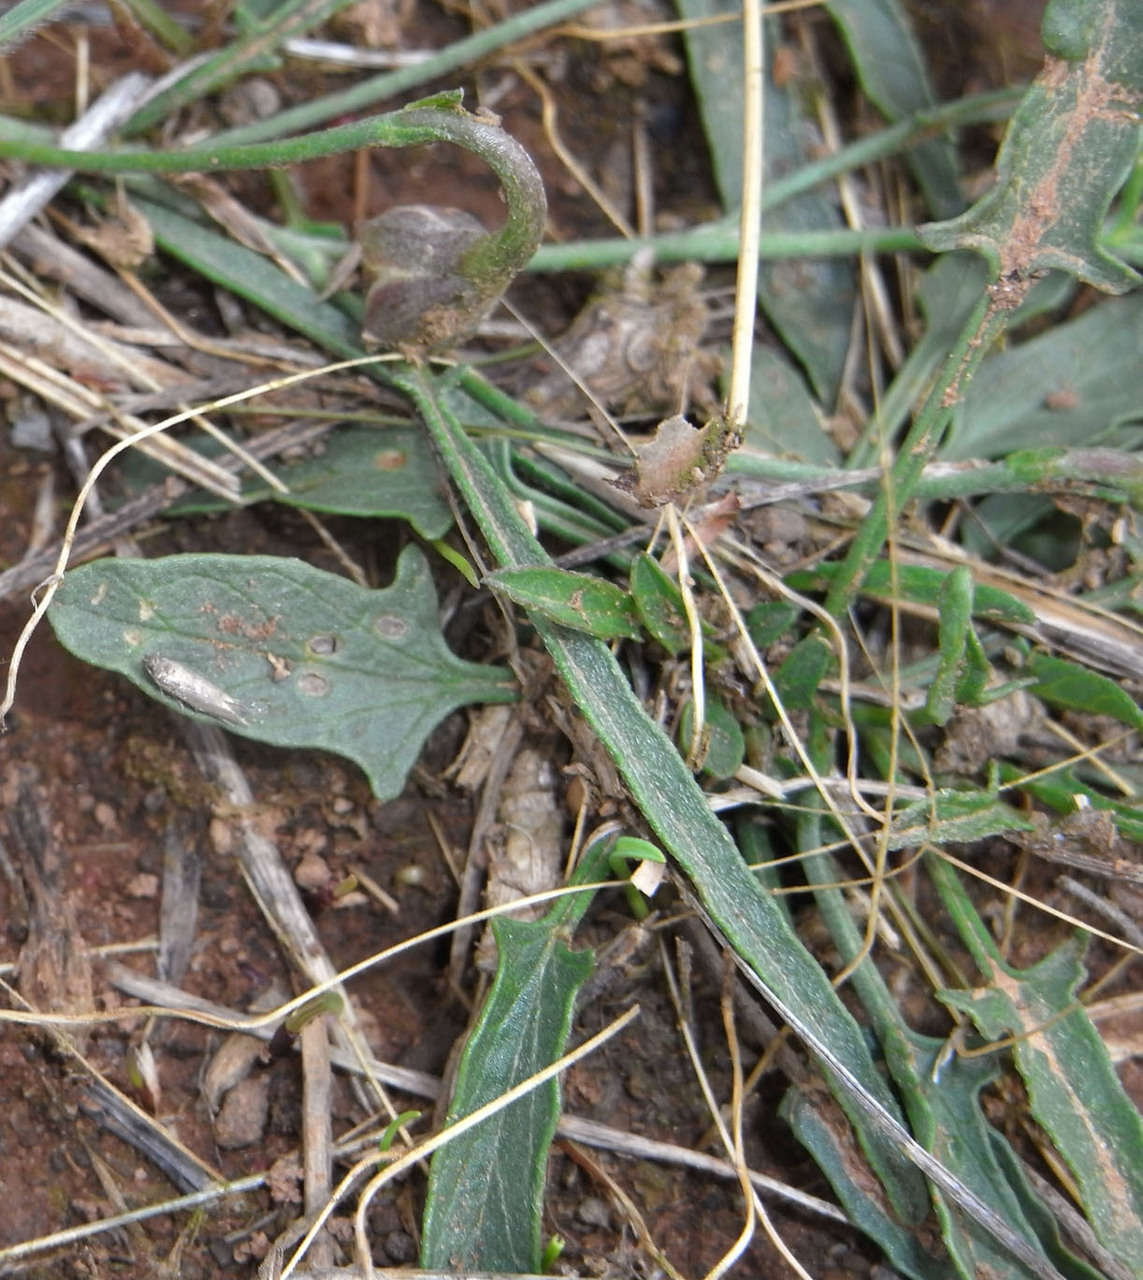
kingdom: Plantae
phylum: Tracheophyta
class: Magnoliopsida
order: Solanales
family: Convolvulaceae
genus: Convolvulus
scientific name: Convolvulus angustissimus
